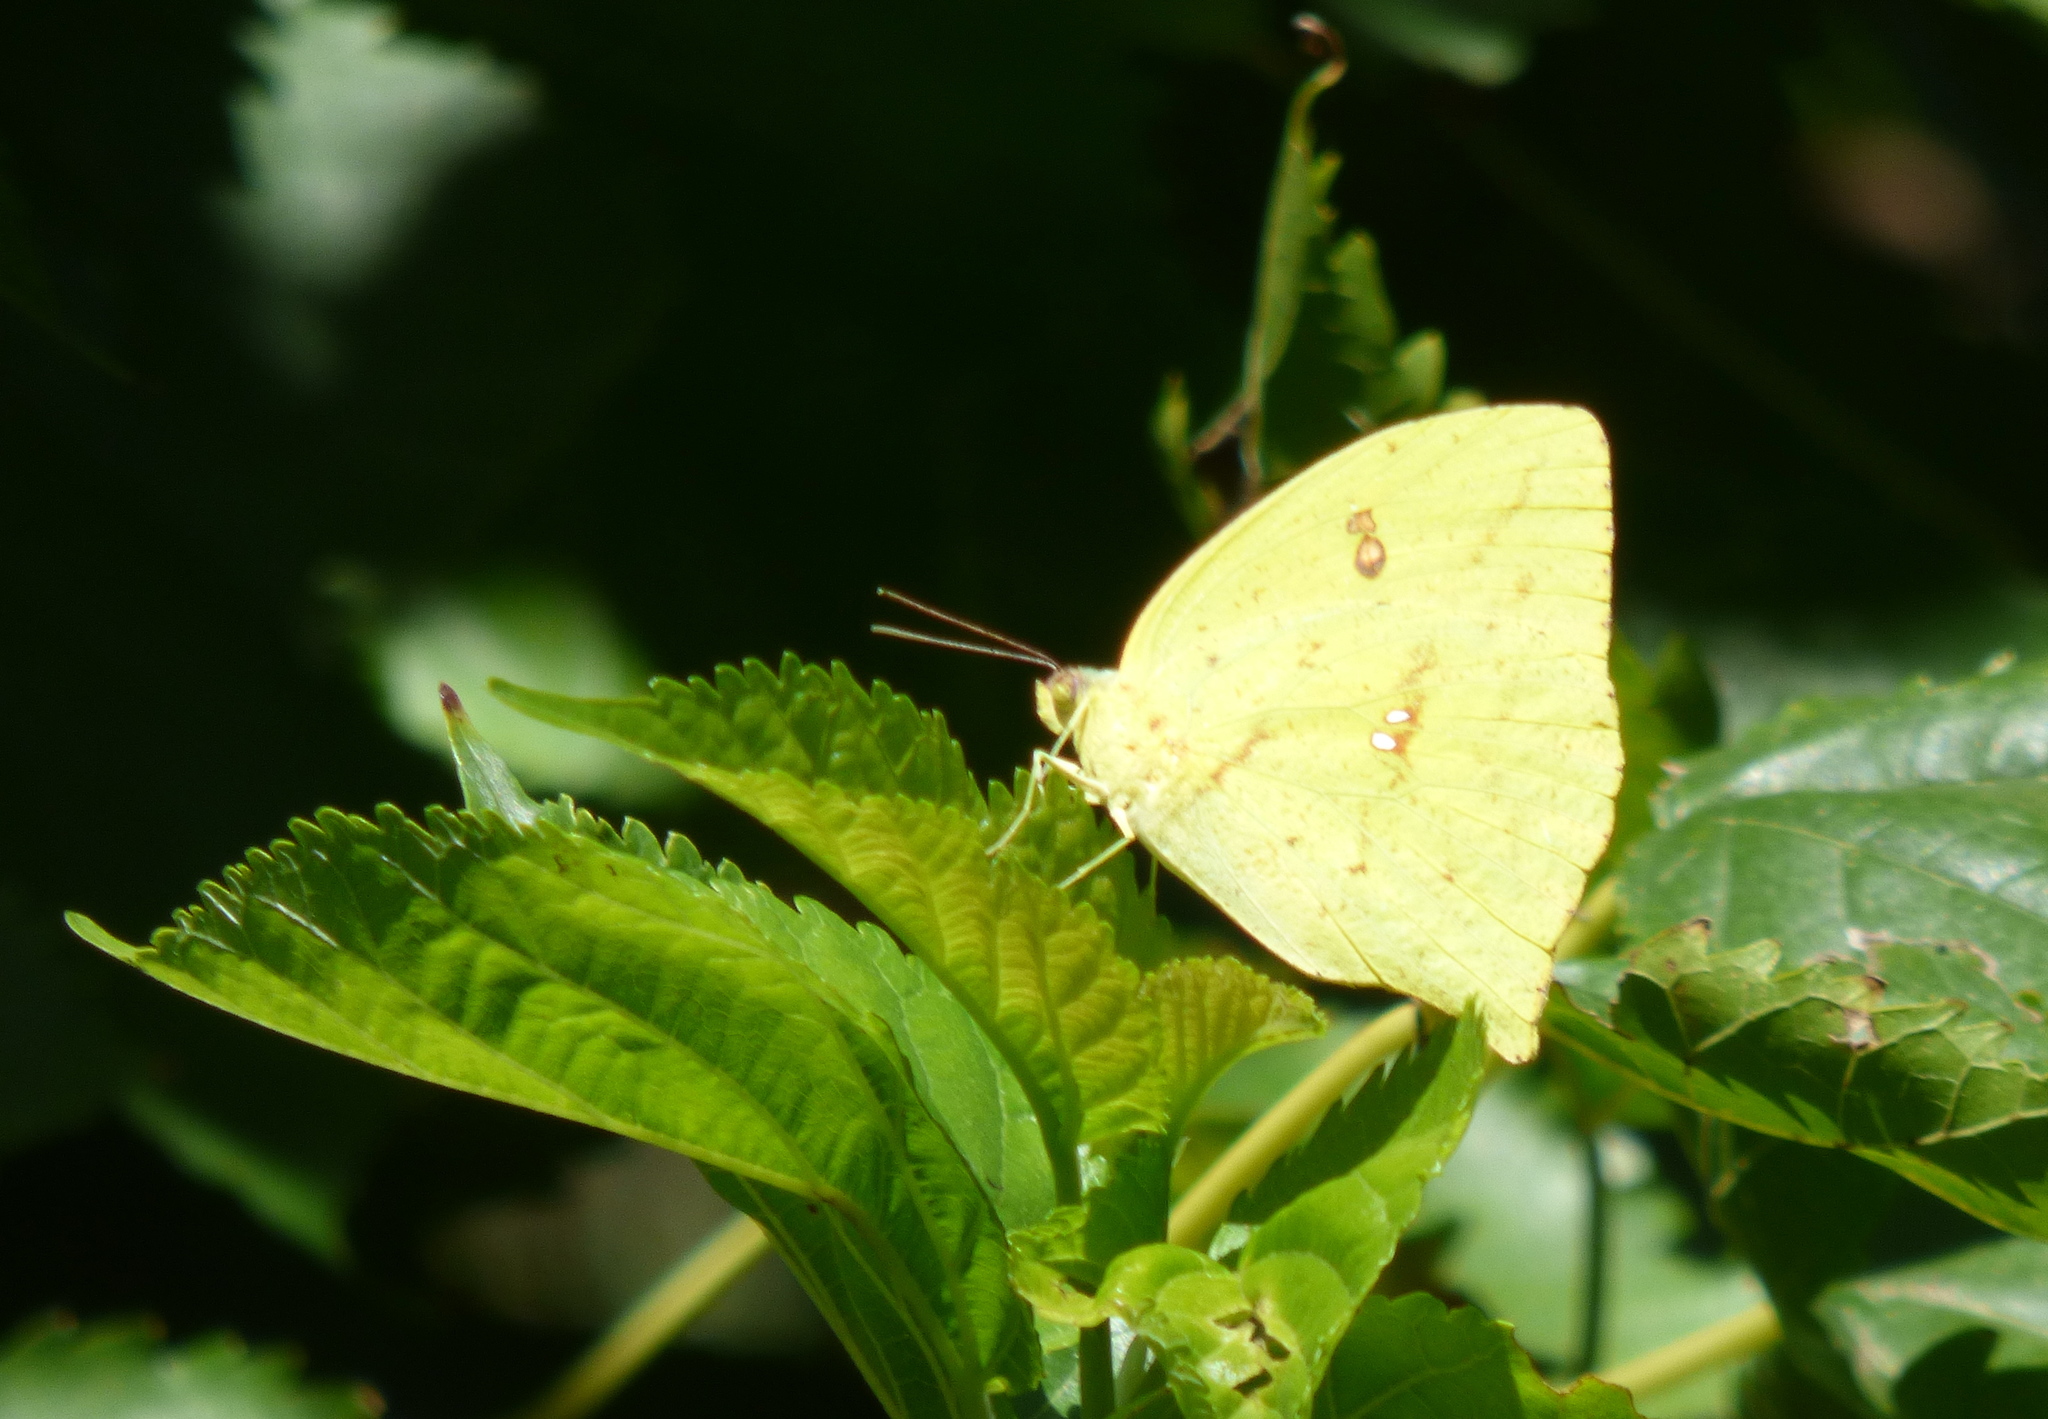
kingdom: Animalia
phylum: Arthropoda
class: Insecta
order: Lepidoptera
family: Pieridae
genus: Phoebis
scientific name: Phoebis neocypris
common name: Tailed sulphur
